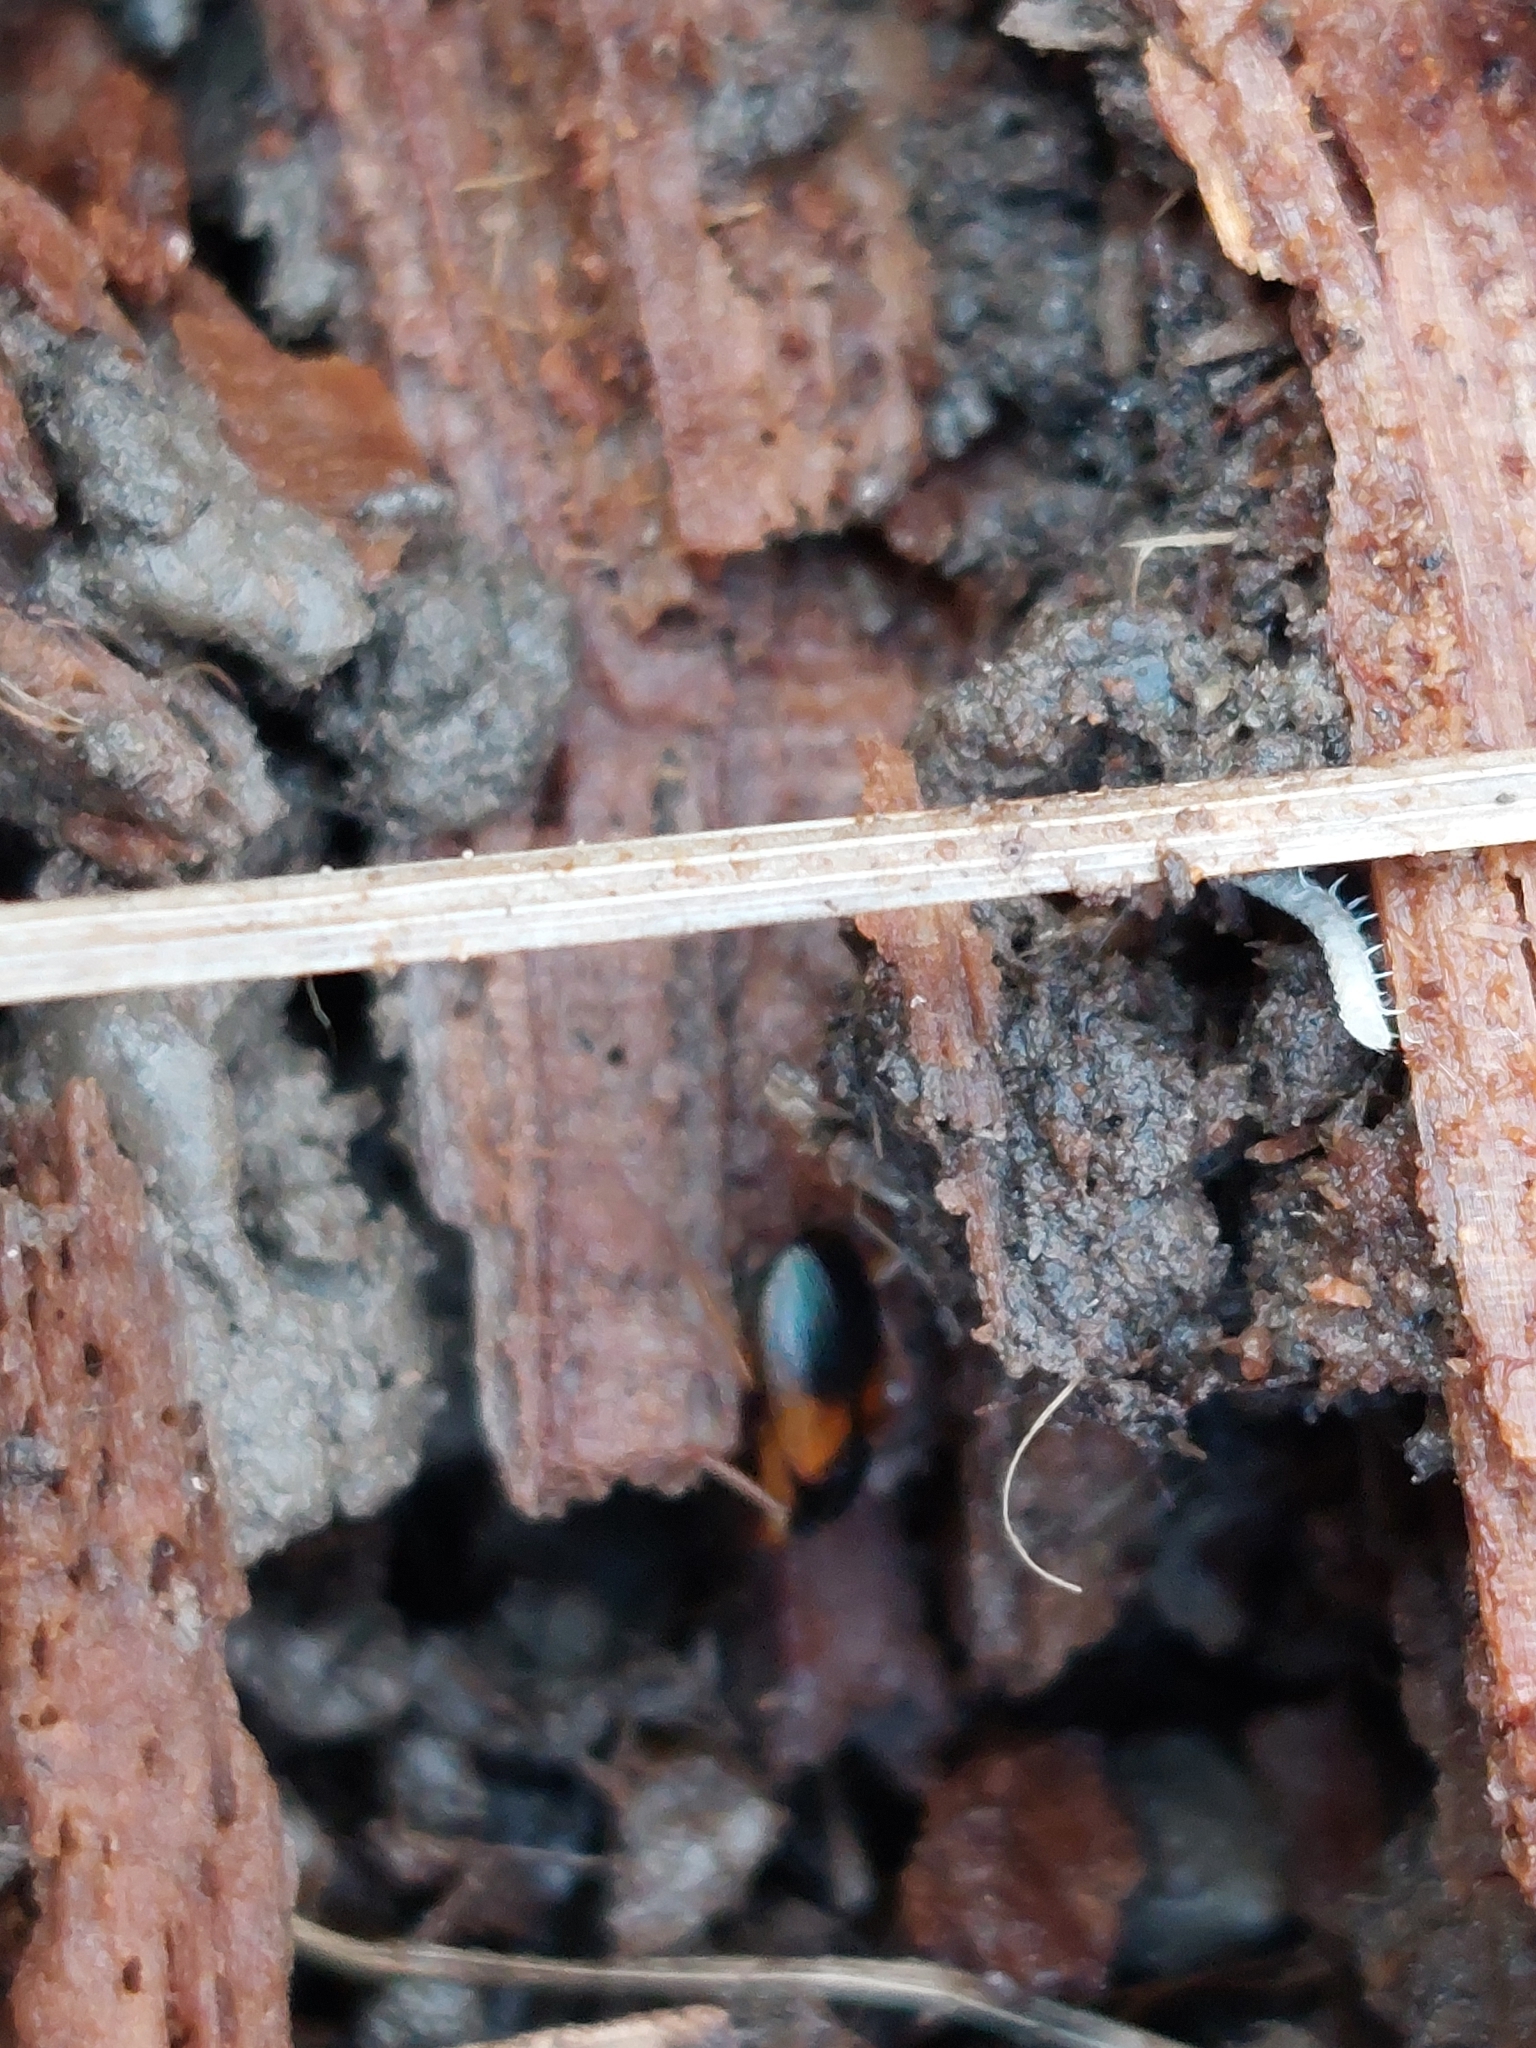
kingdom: Animalia
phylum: Arthropoda
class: Insecta
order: Coleoptera
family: Carabidae
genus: Anchomenus
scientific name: Anchomenus dorsalis
